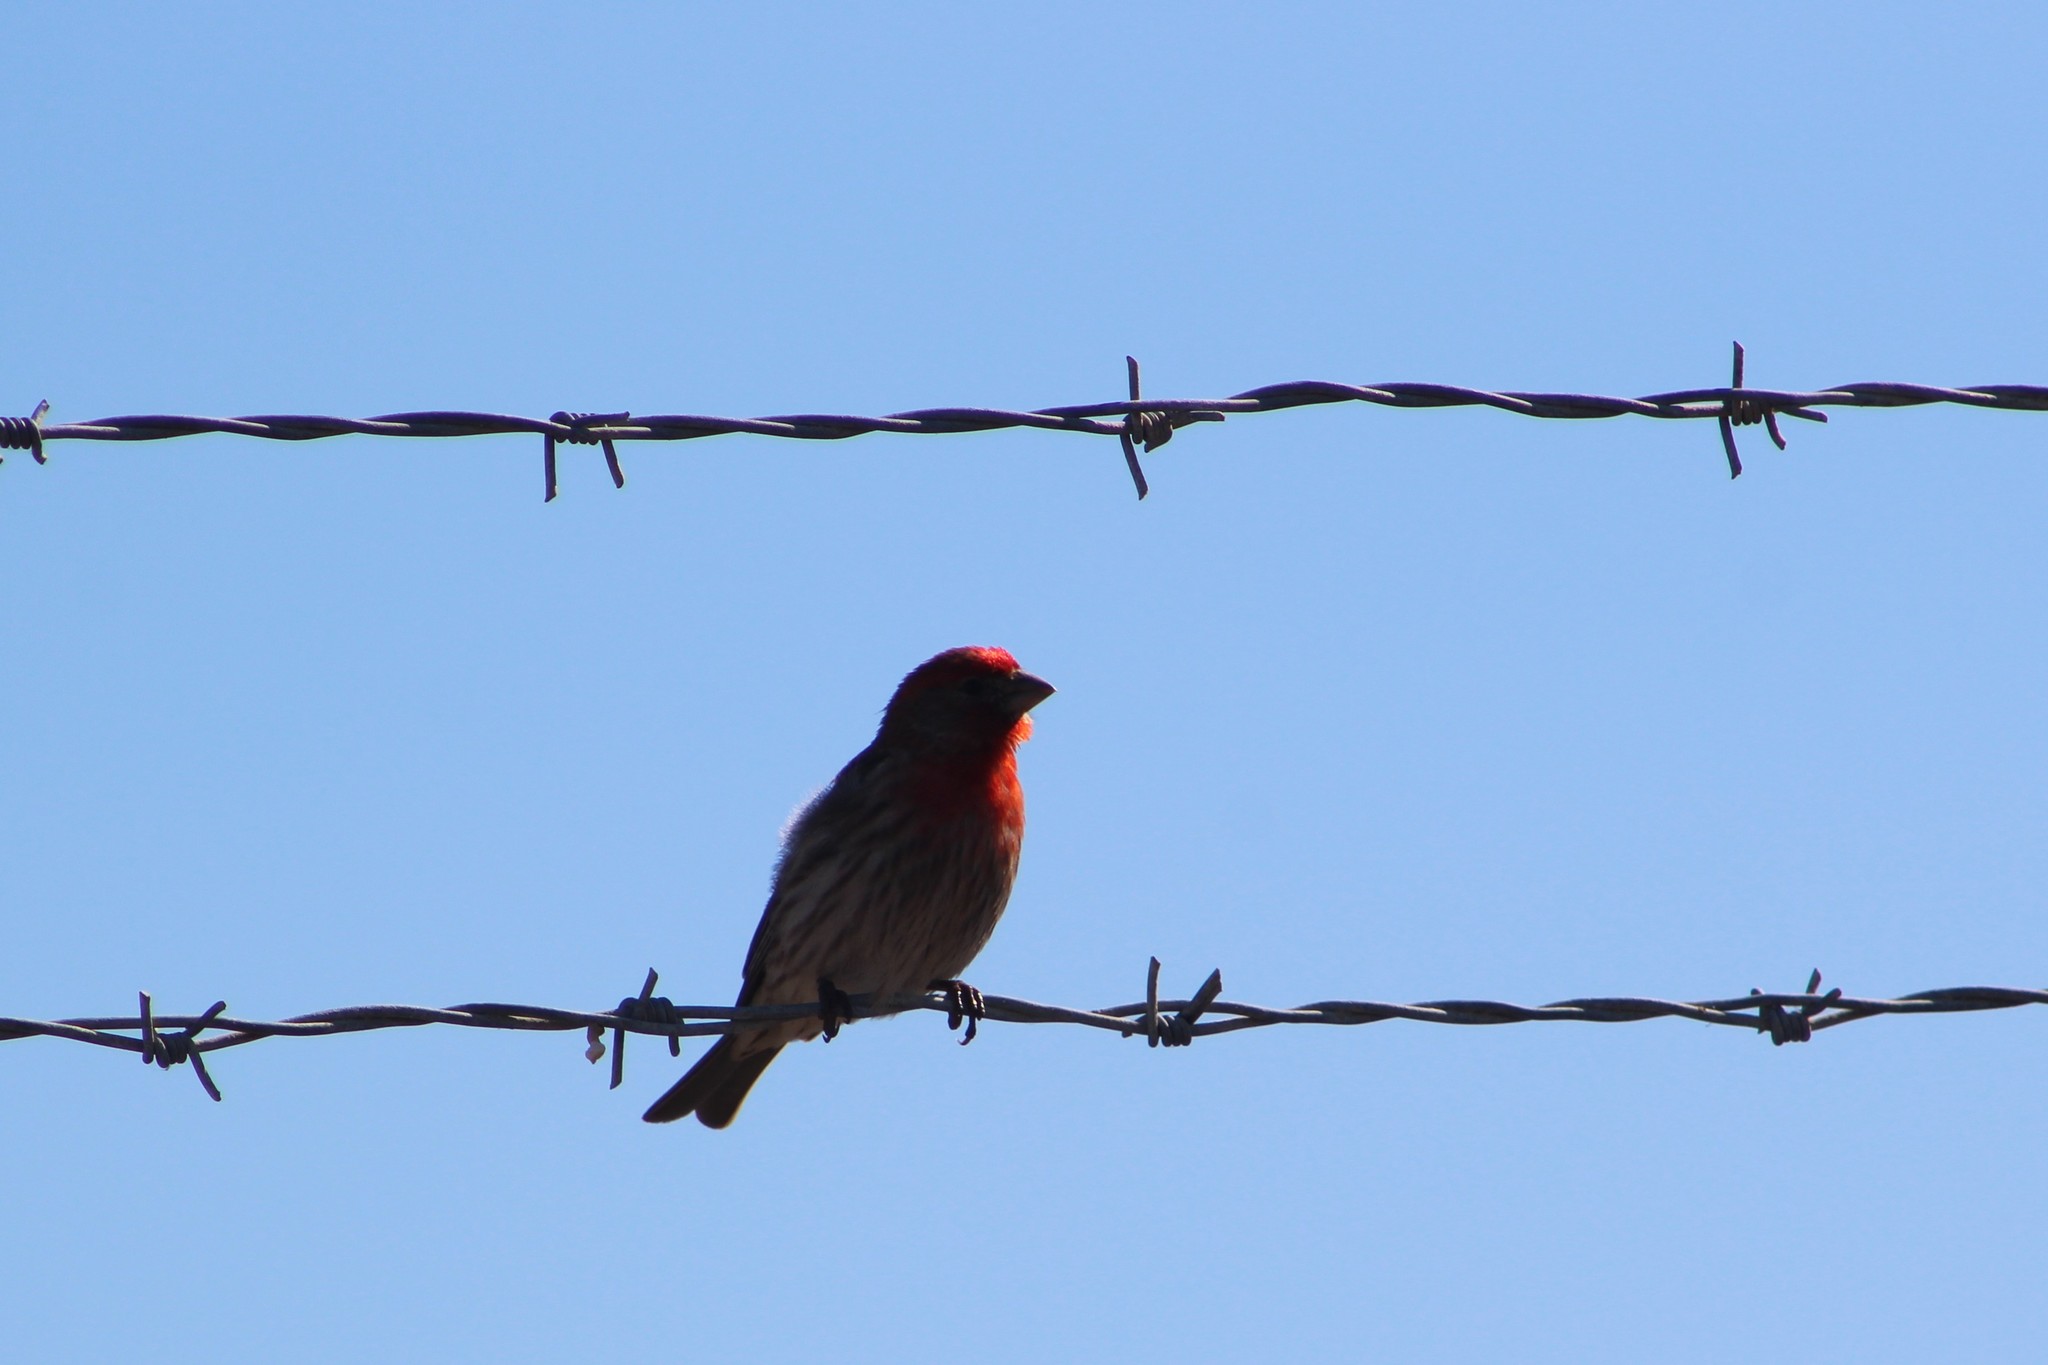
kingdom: Animalia
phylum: Chordata
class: Aves
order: Passeriformes
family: Fringillidae
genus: Haemorhous
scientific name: Haemorhous mexicanus
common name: House finch
